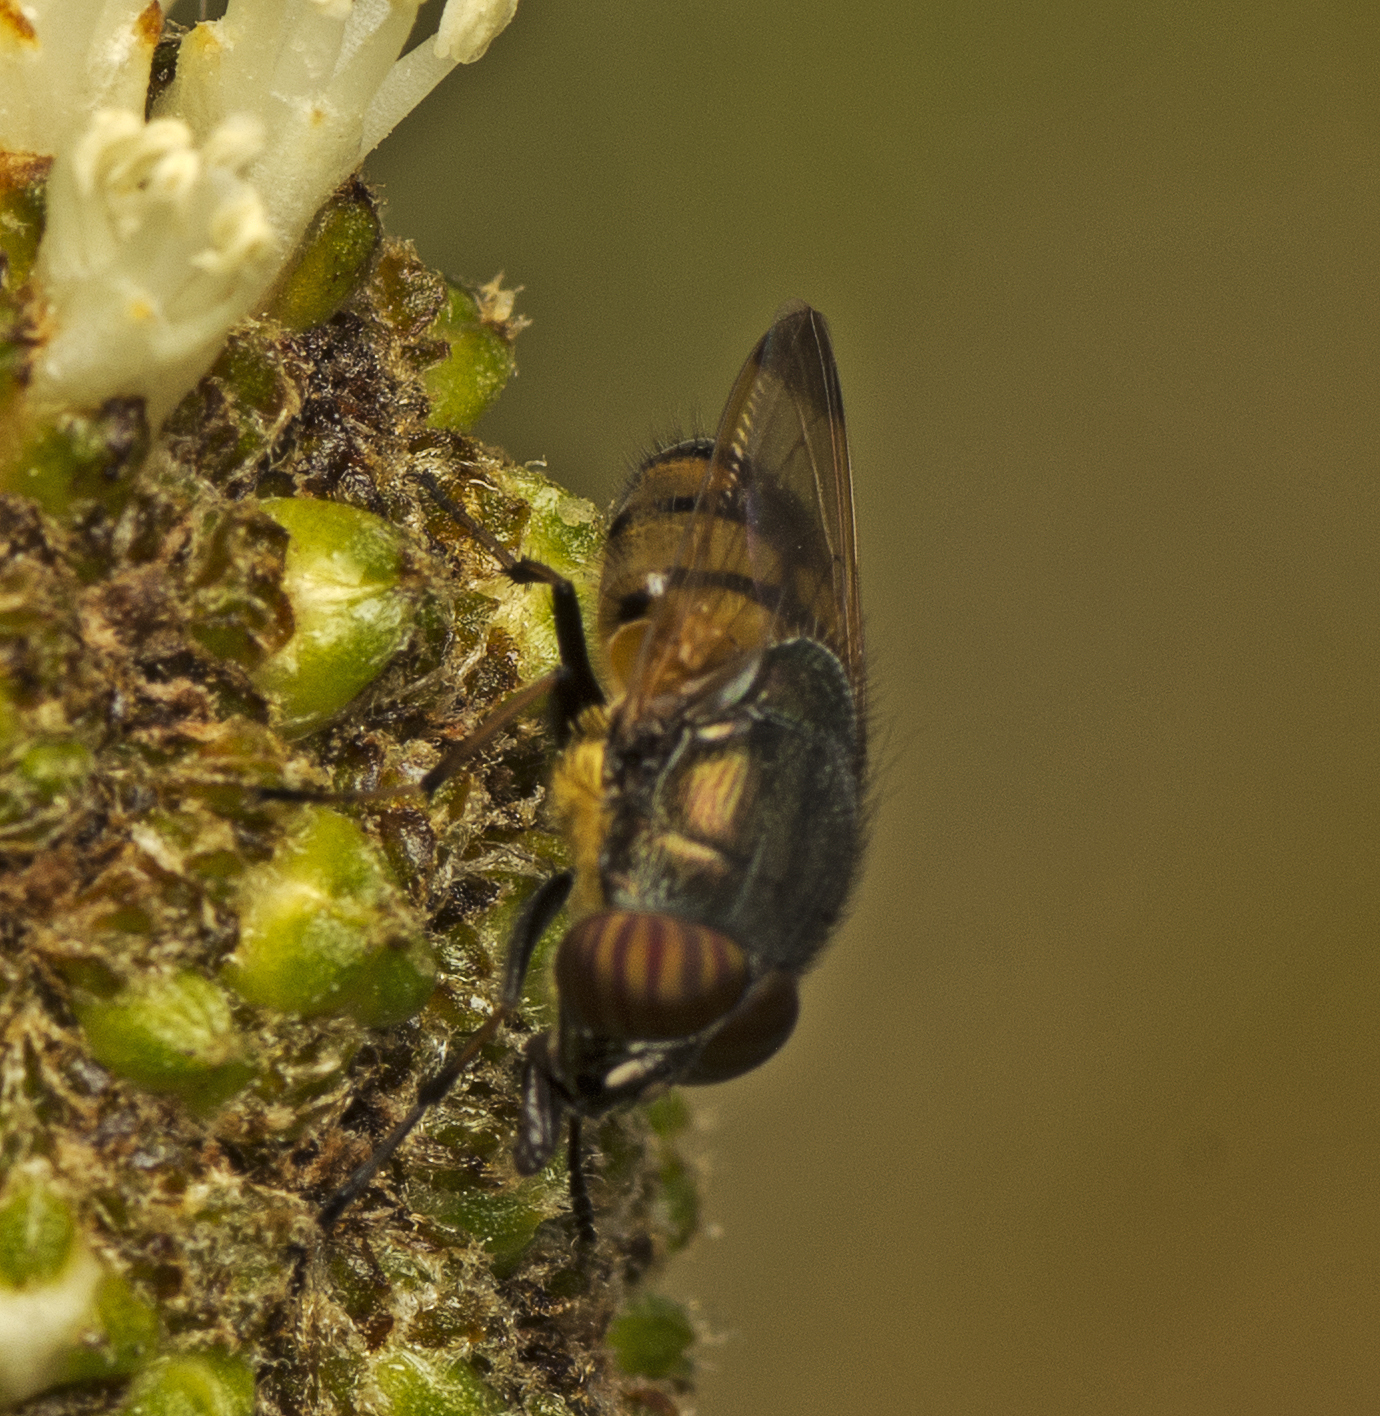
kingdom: Animalia
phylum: Arthropoda
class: Insecta
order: Diptera
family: Calliphoridae
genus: Stomorhina
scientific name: Stomorhina discolor
